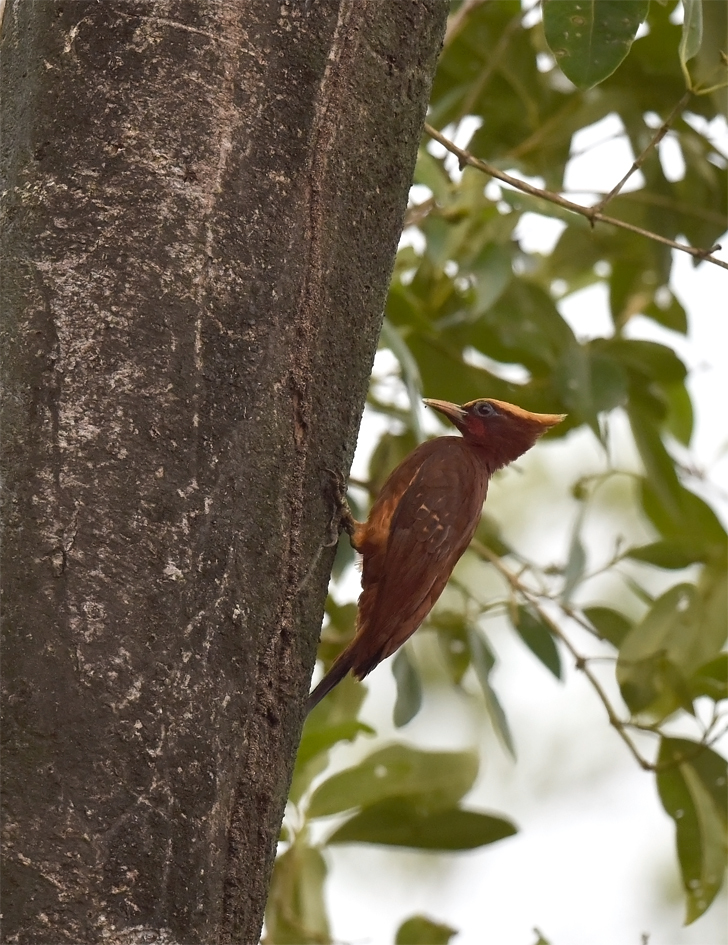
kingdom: Animalia
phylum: Chordata
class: Aves
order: Piciformes
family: Picidae
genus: Celeus
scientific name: Celeus elegans
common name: Chestnut woodpecker
